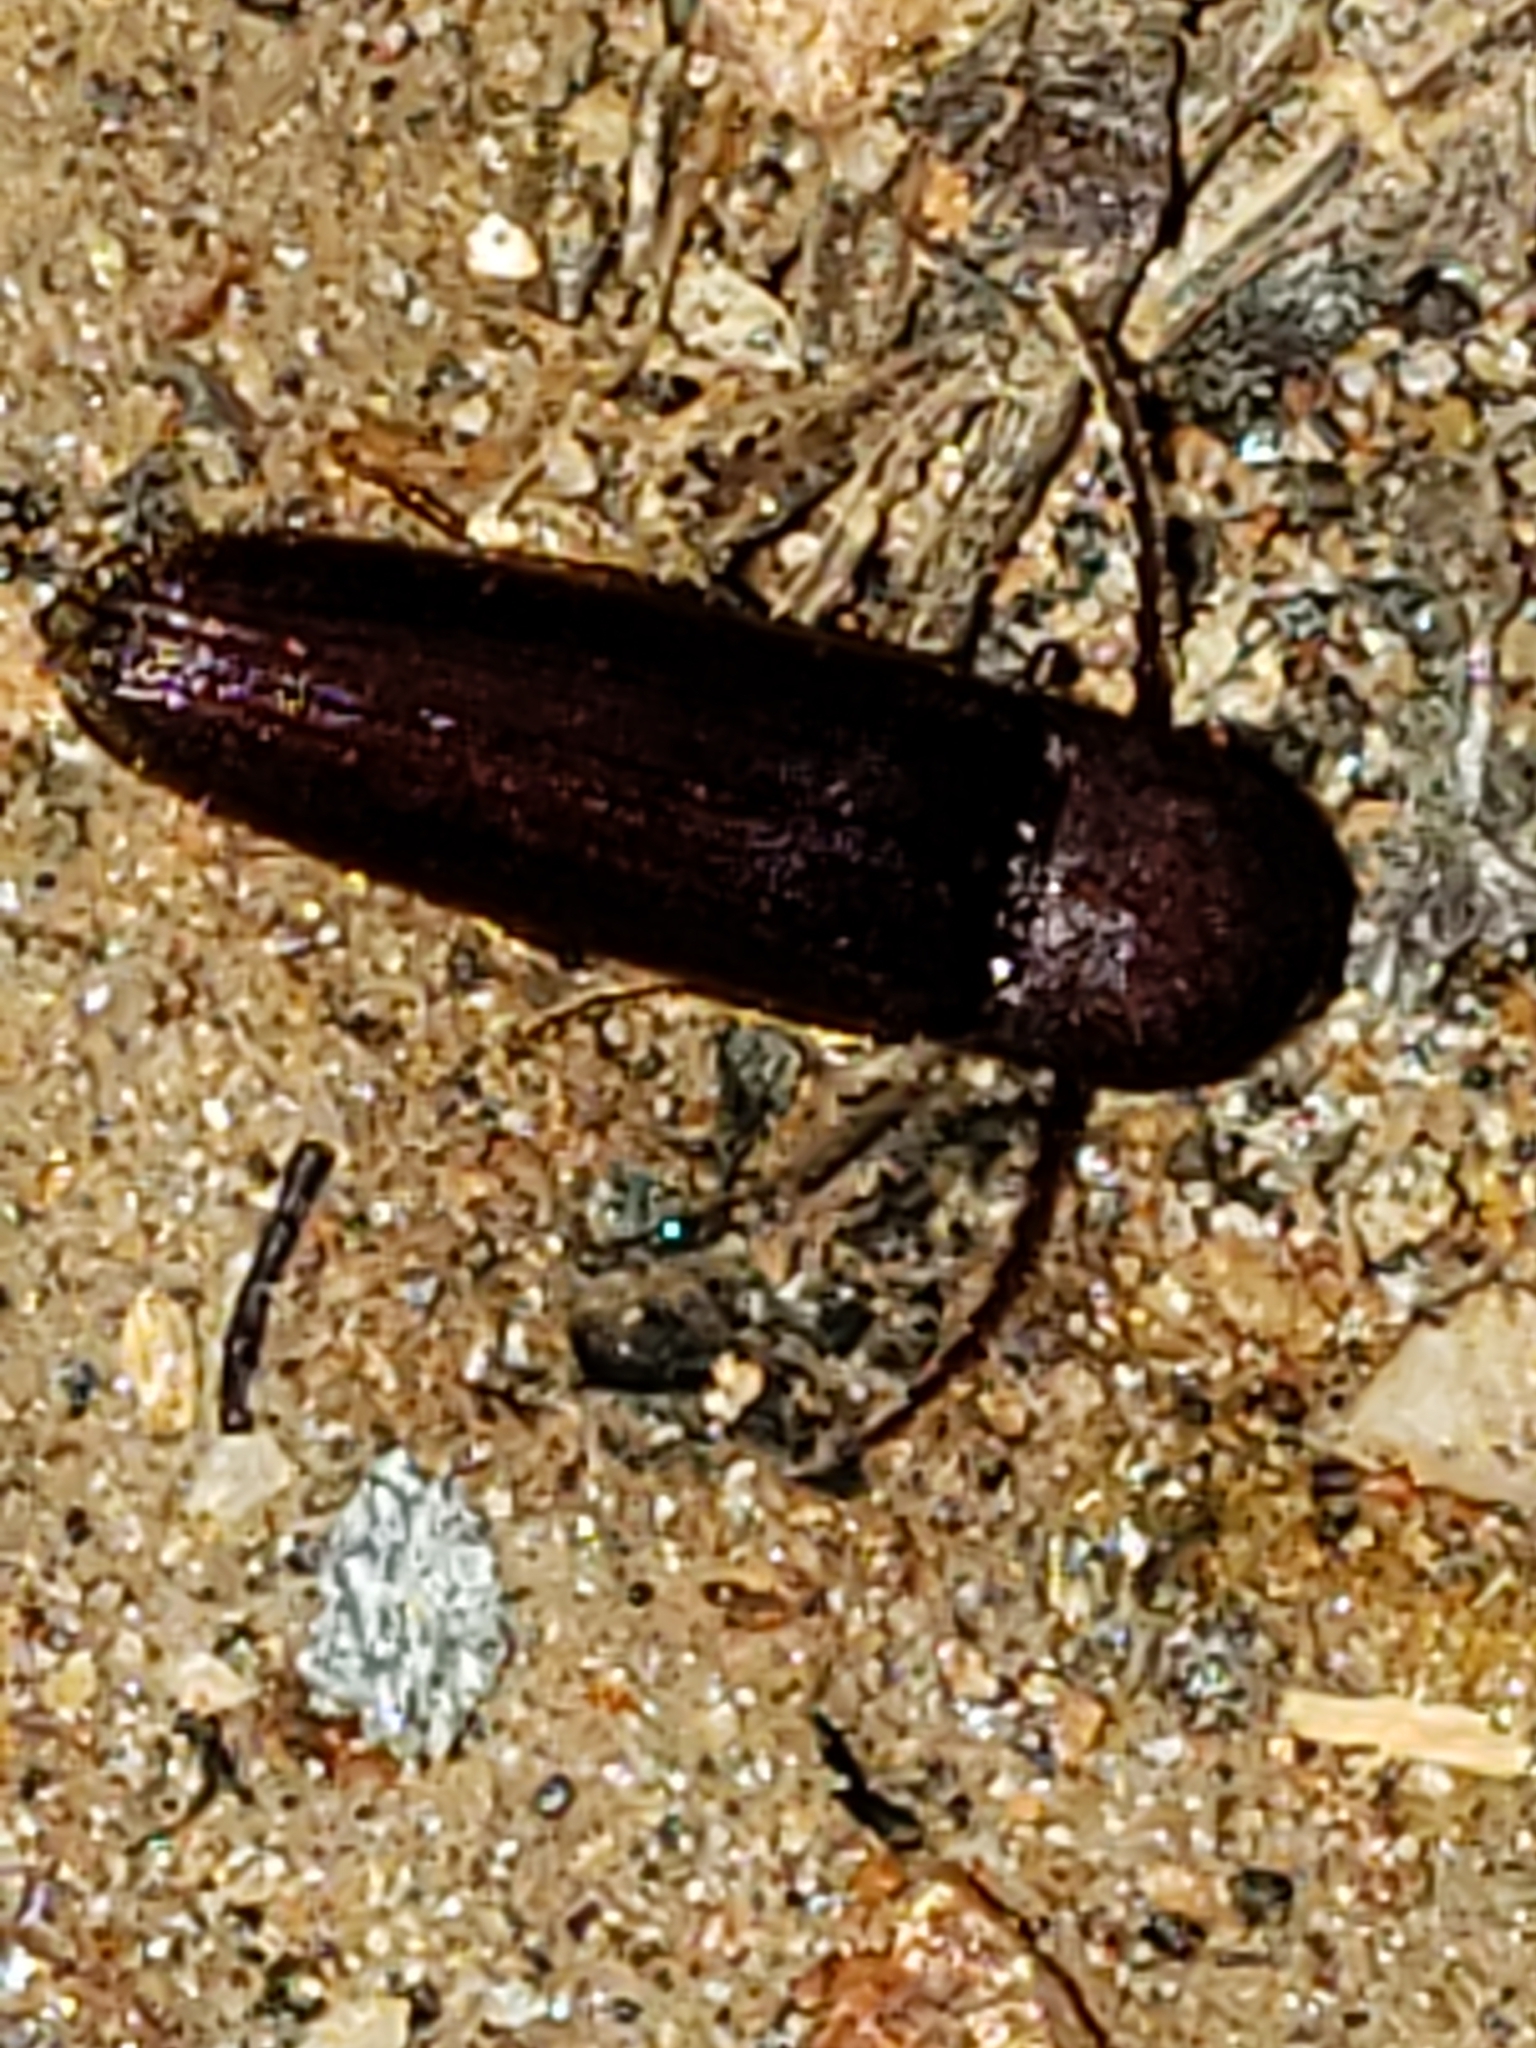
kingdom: Animalia
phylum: Arthropoda
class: Insecta
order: Coleoptera
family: Eucnemidae
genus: Dirrhagofarsus
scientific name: Dirrhagofarsus lewisi
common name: False click beetle
